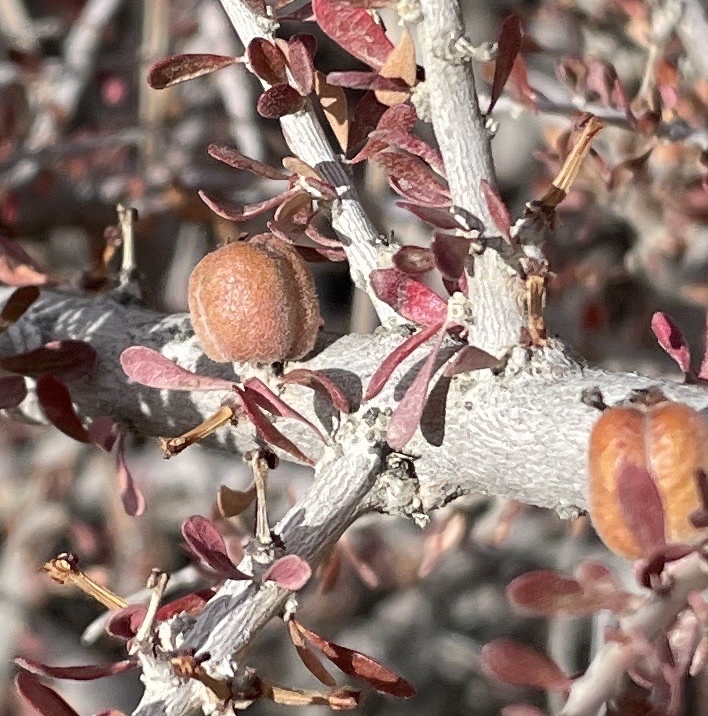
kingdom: Plantae
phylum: Tracheophyta
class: Magnoliopsida
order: Malpighiales
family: Picrodendraceae
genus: Tetracoccus
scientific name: Tetracoccus hallii
